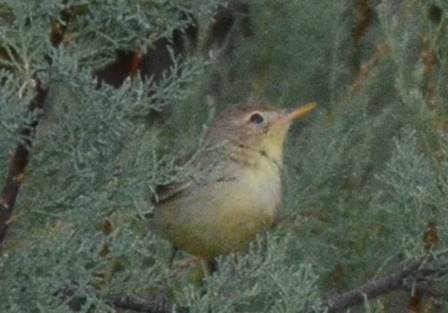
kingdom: Animalia
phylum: Chordata
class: Aves
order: Passeriformes
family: Acrocephalidae
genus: Hippolais
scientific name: Hippolais polyglotta
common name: Melodious warbler
